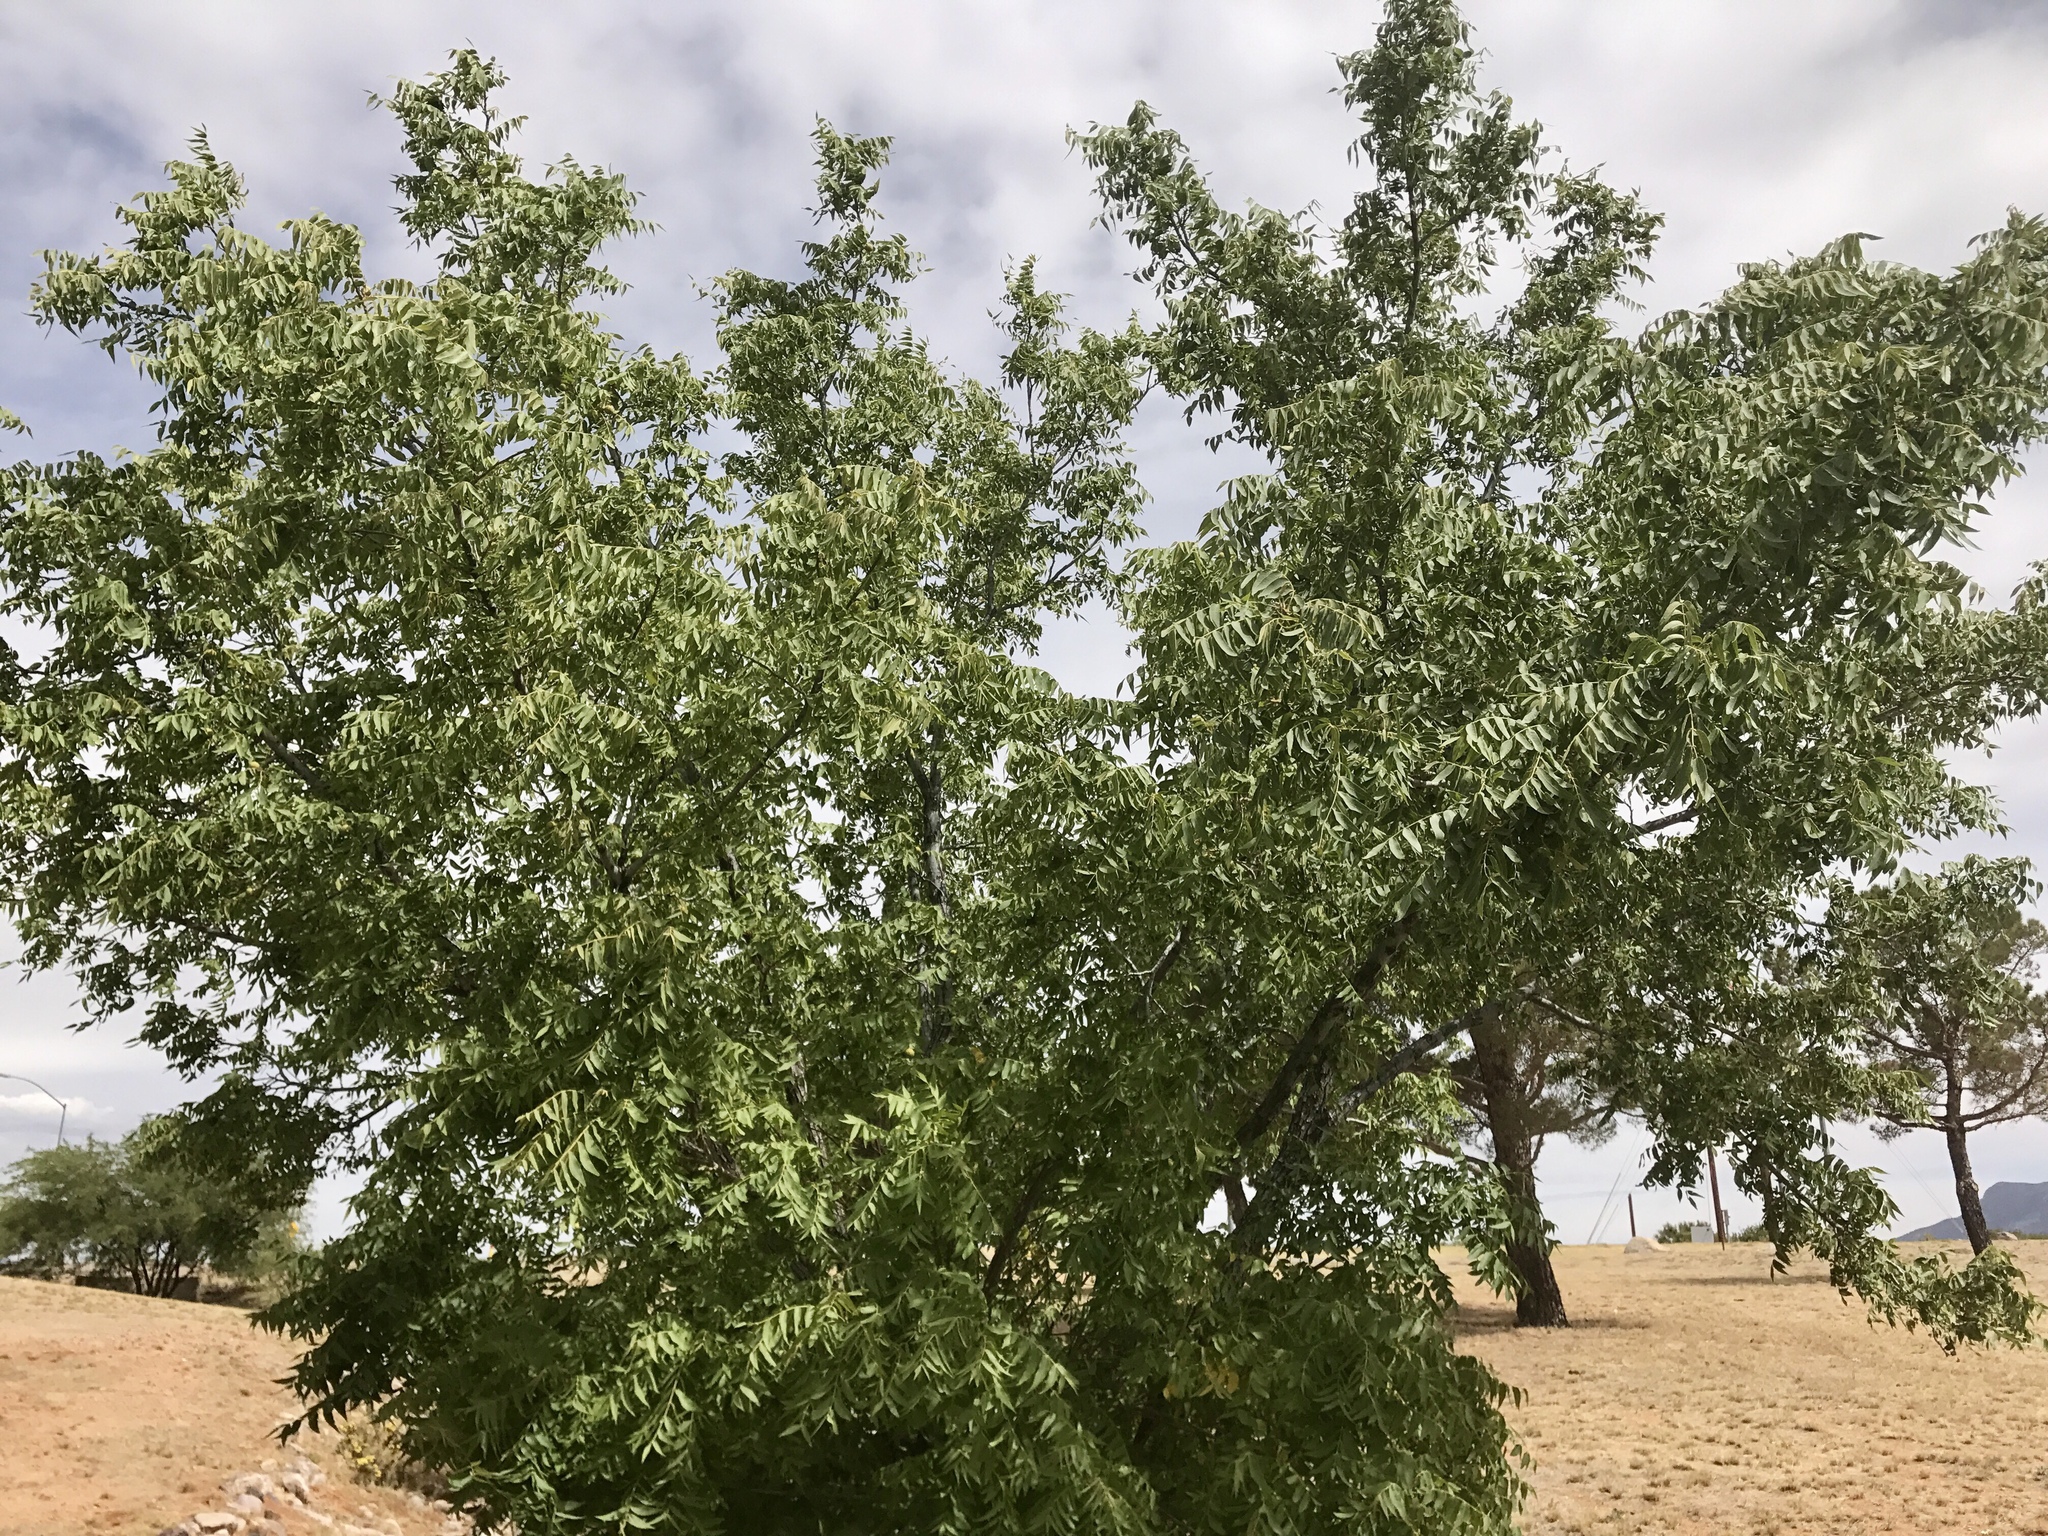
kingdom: Plantae
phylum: Tracheophyta
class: Magnoliopsida
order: Fagales
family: Juglandaceae
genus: Juglans
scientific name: Juglans major
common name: Arizona walnut
